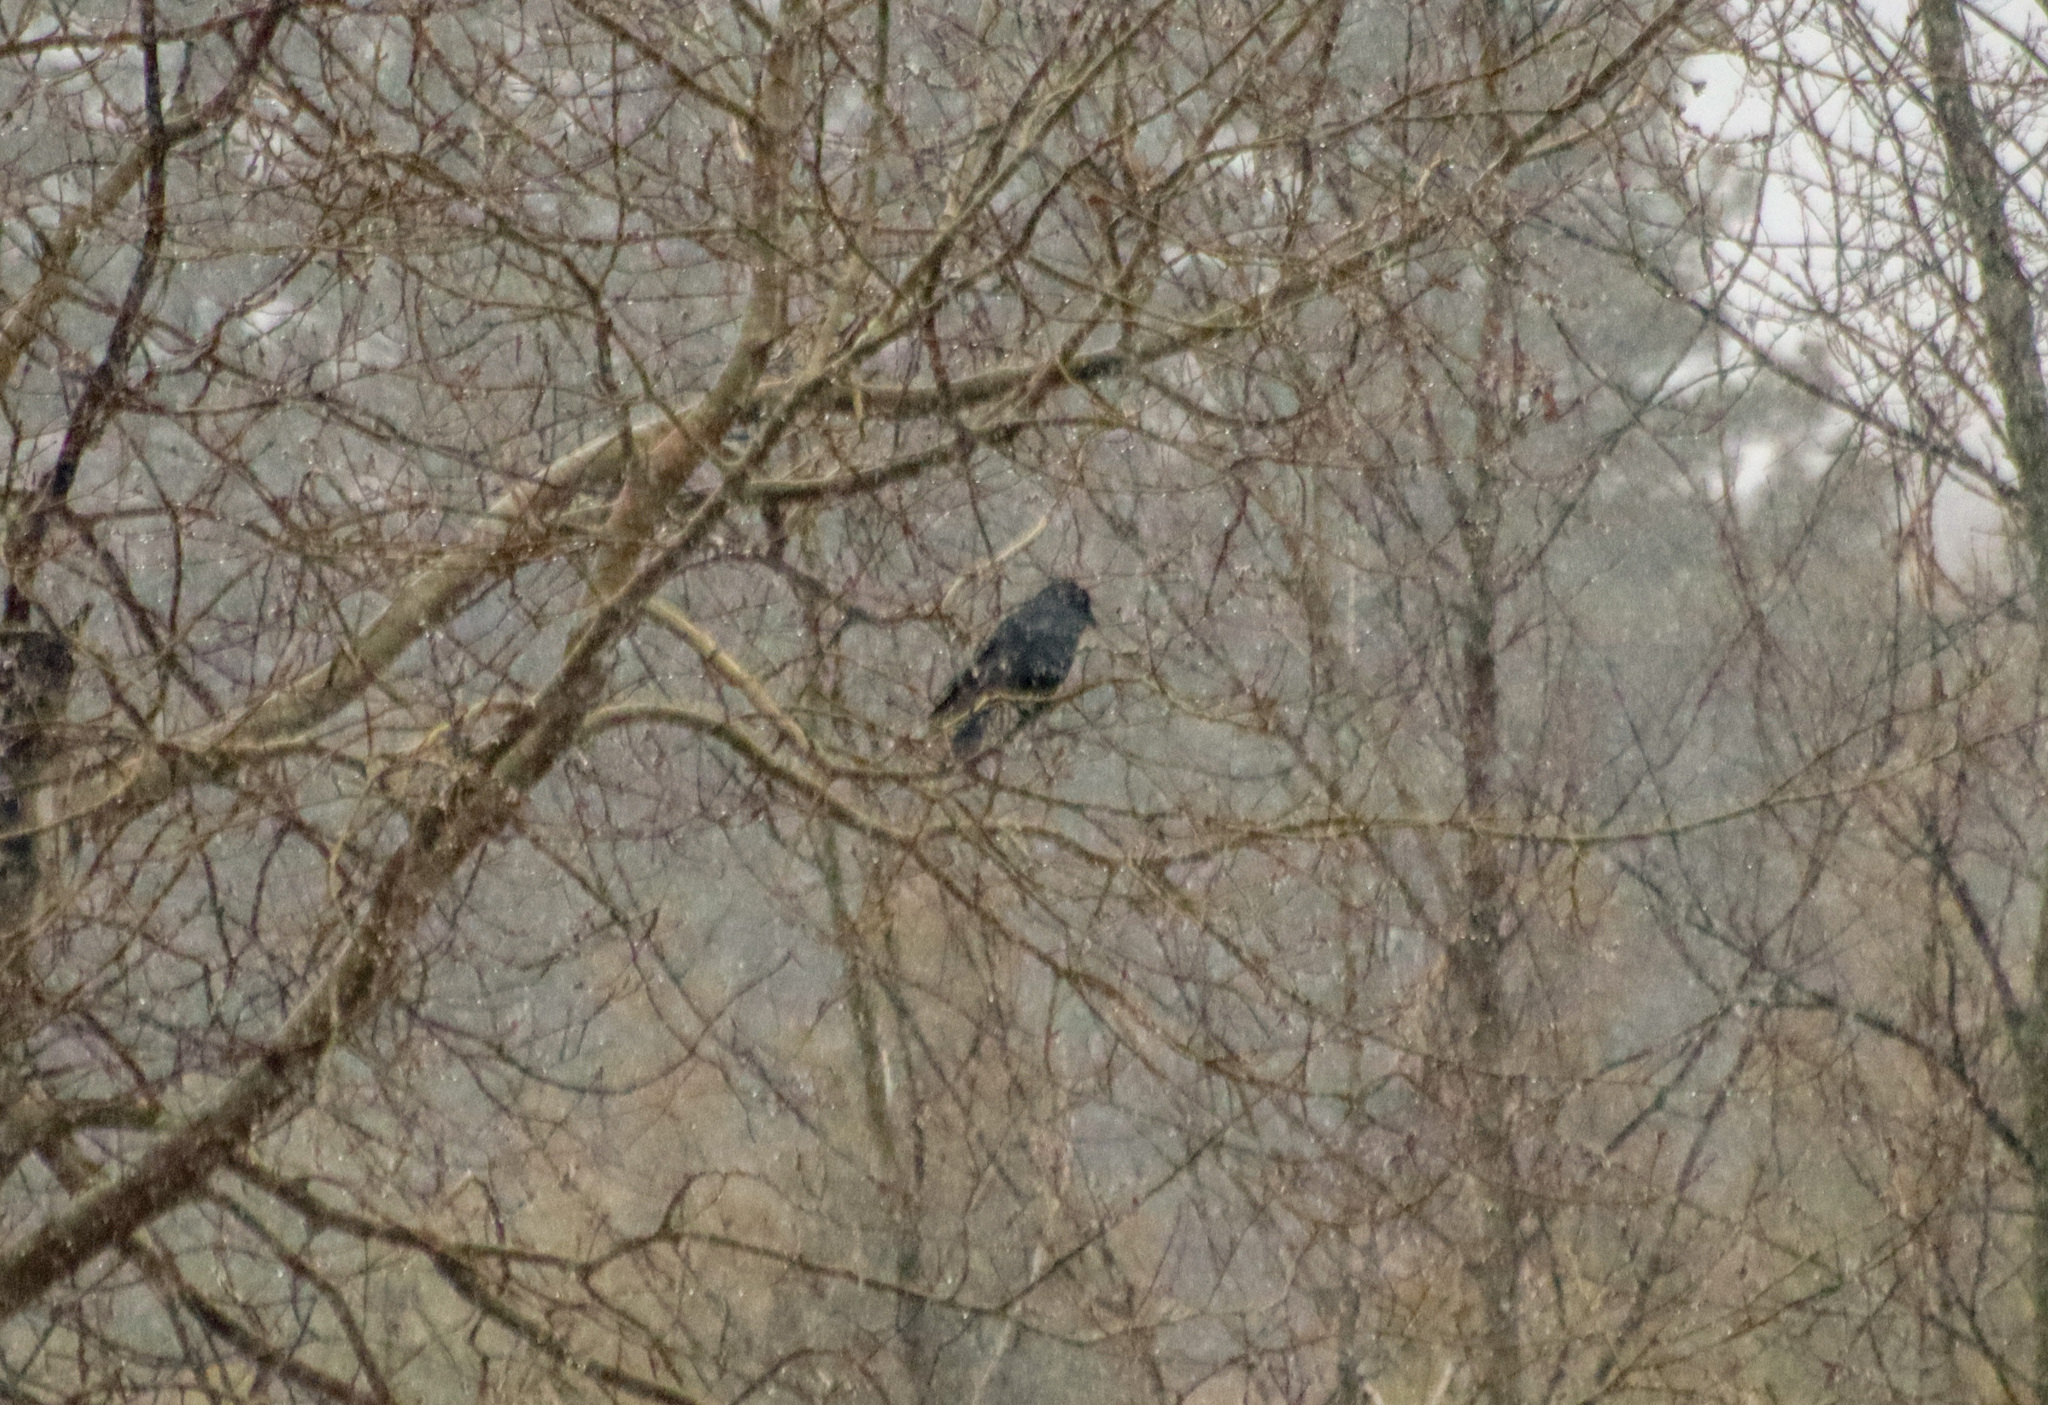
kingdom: Animalia
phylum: Chordata
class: Aves
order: Passeriformes
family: Corvidae
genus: Corvus
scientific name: Corvus brachyrhynchos
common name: American crow
